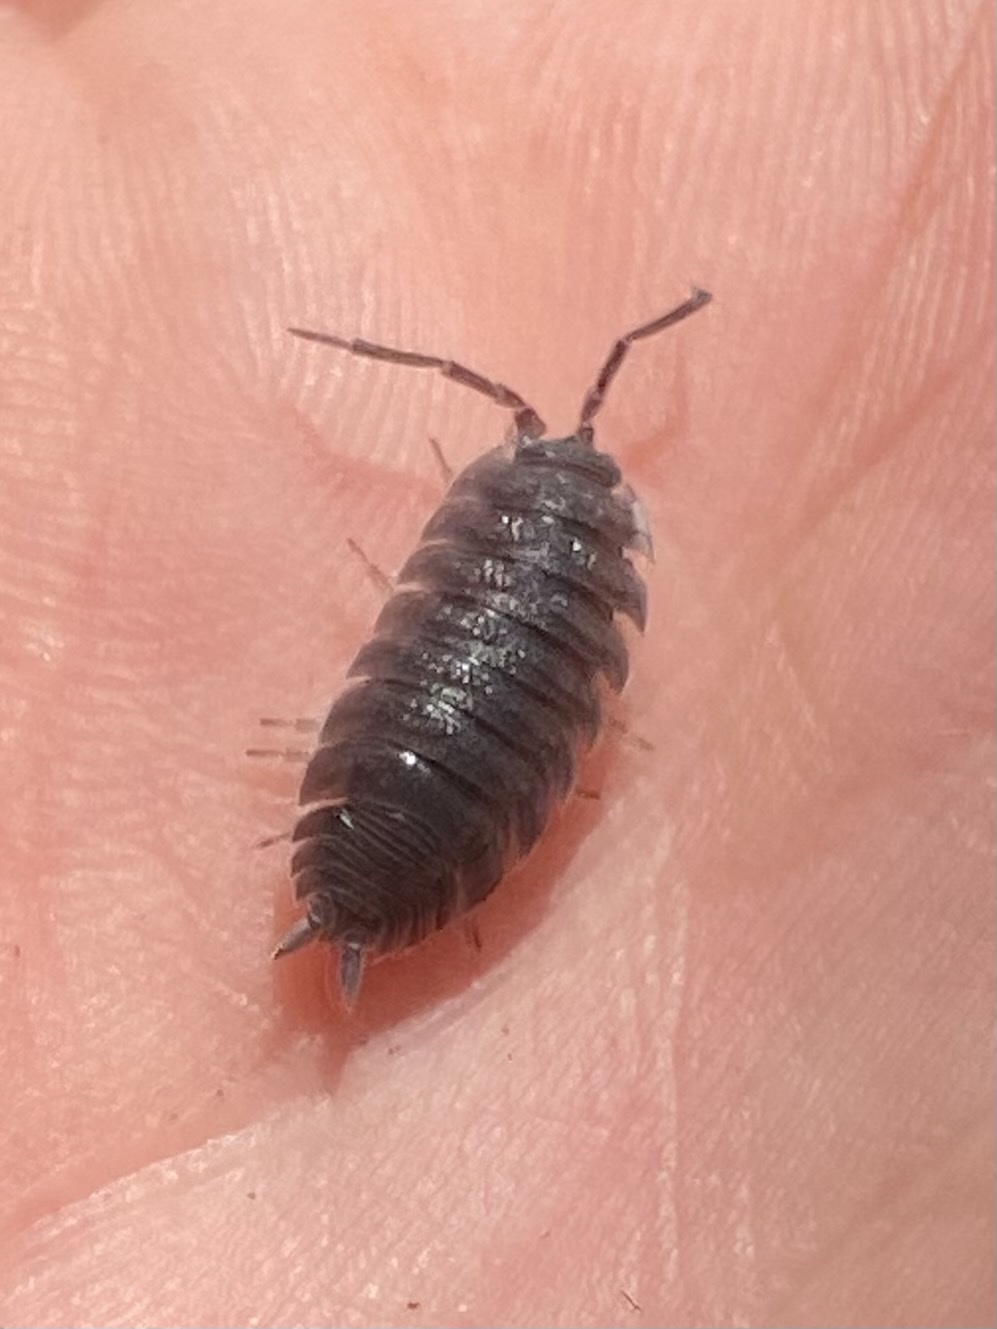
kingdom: Animalia
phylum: Arthropoda
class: Malacostraca
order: Isopoda
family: Porcellionidae
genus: Porcellio
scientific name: Porcellio scaber
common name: Common rough woodlouse
